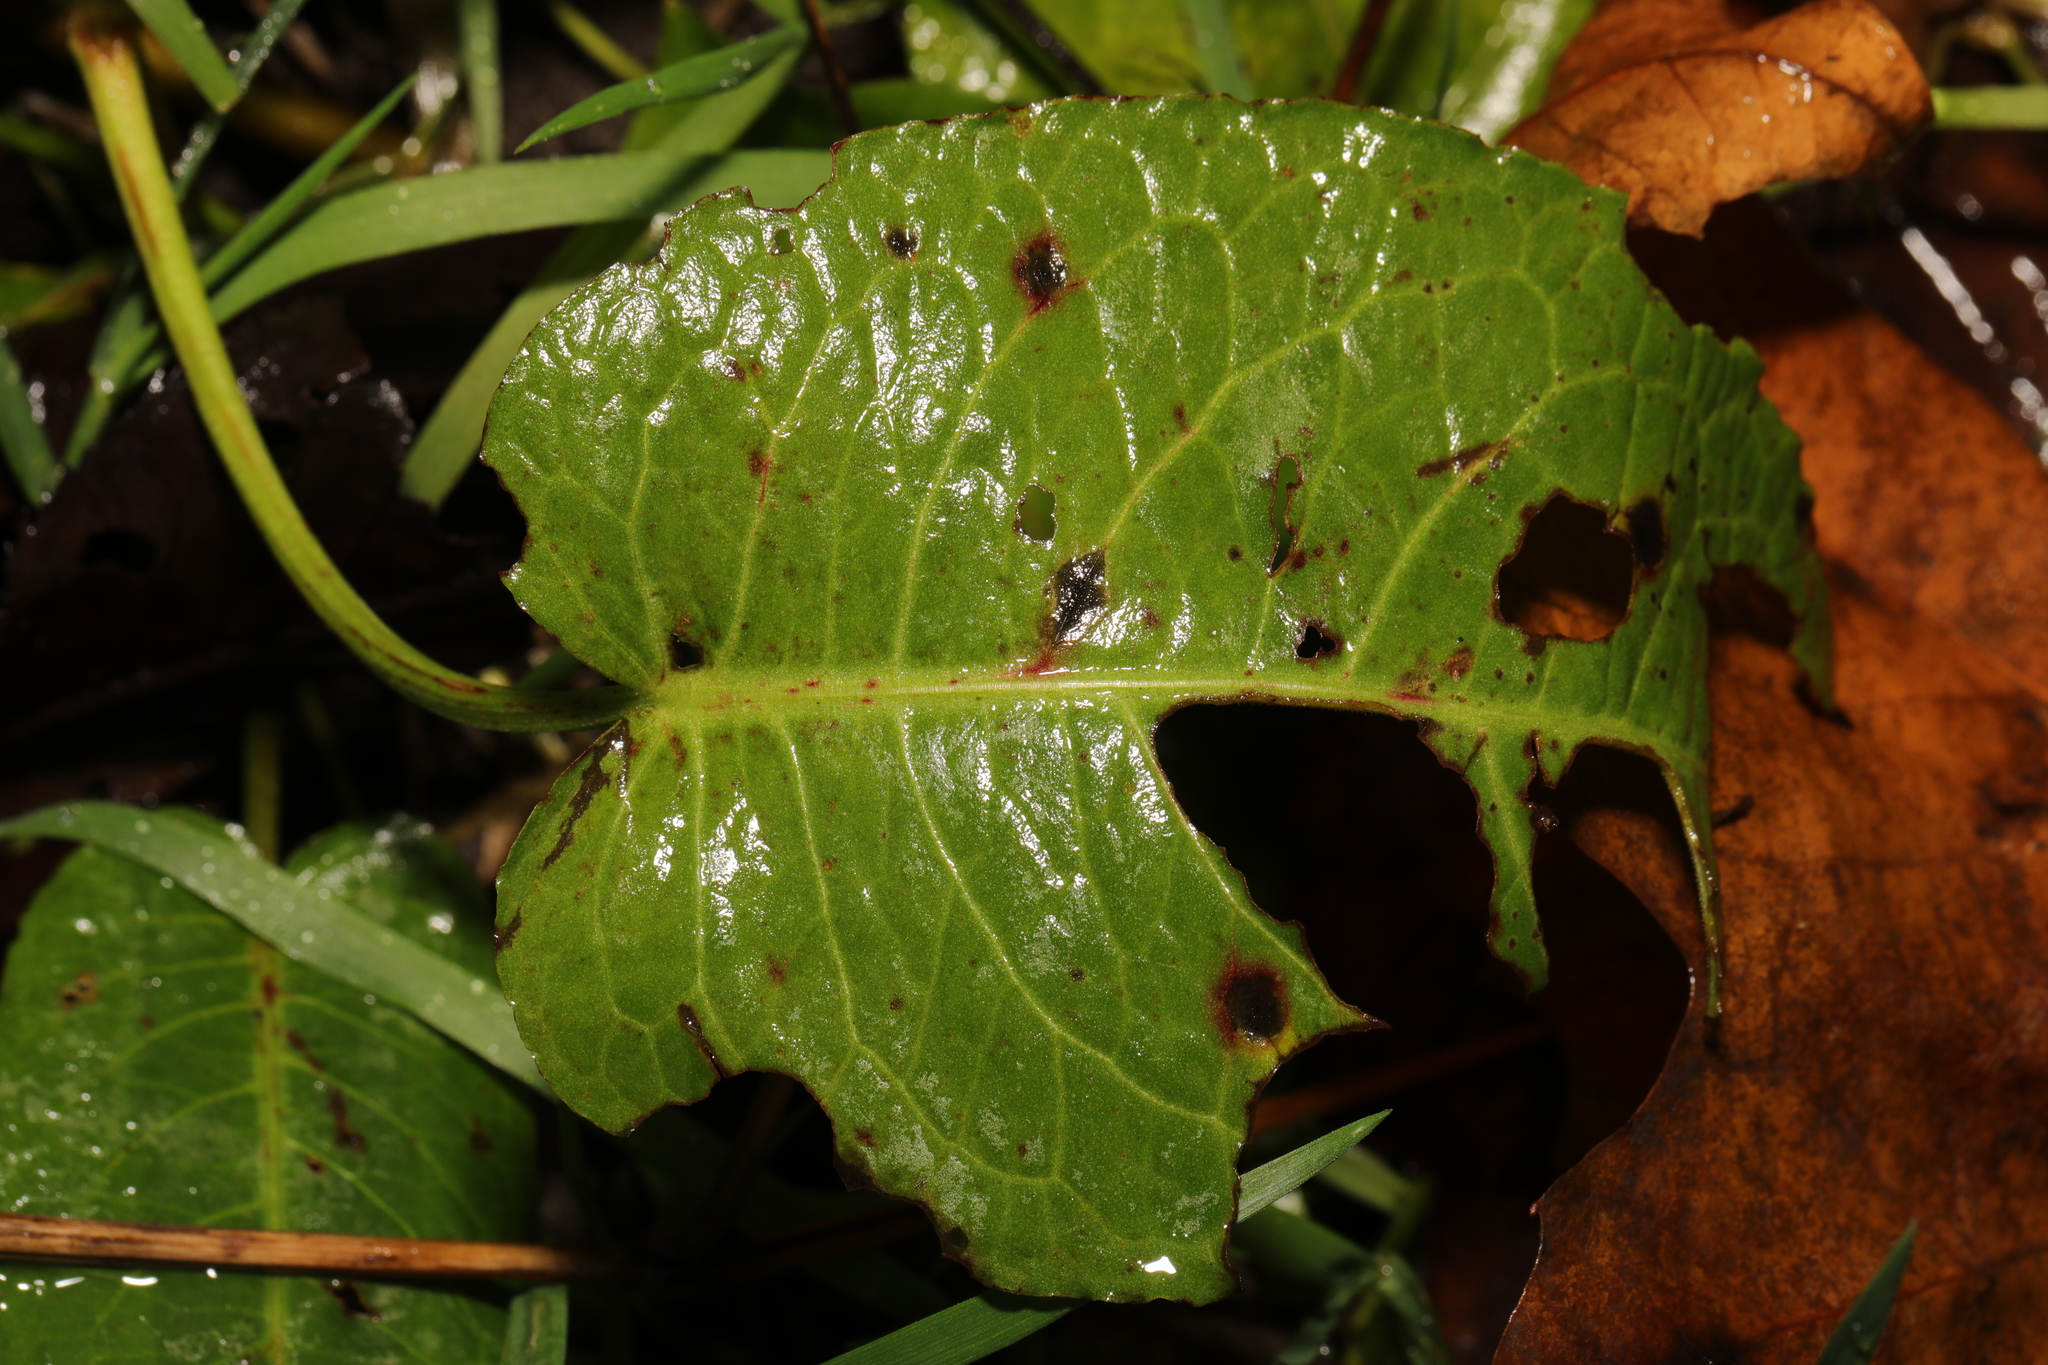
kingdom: Plantae
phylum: Tracheophyta
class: Magnoliopsida
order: Caryophyllales
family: Polygonaceae
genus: Rumex
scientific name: Rumex obtusifolius
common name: Bitter dock
